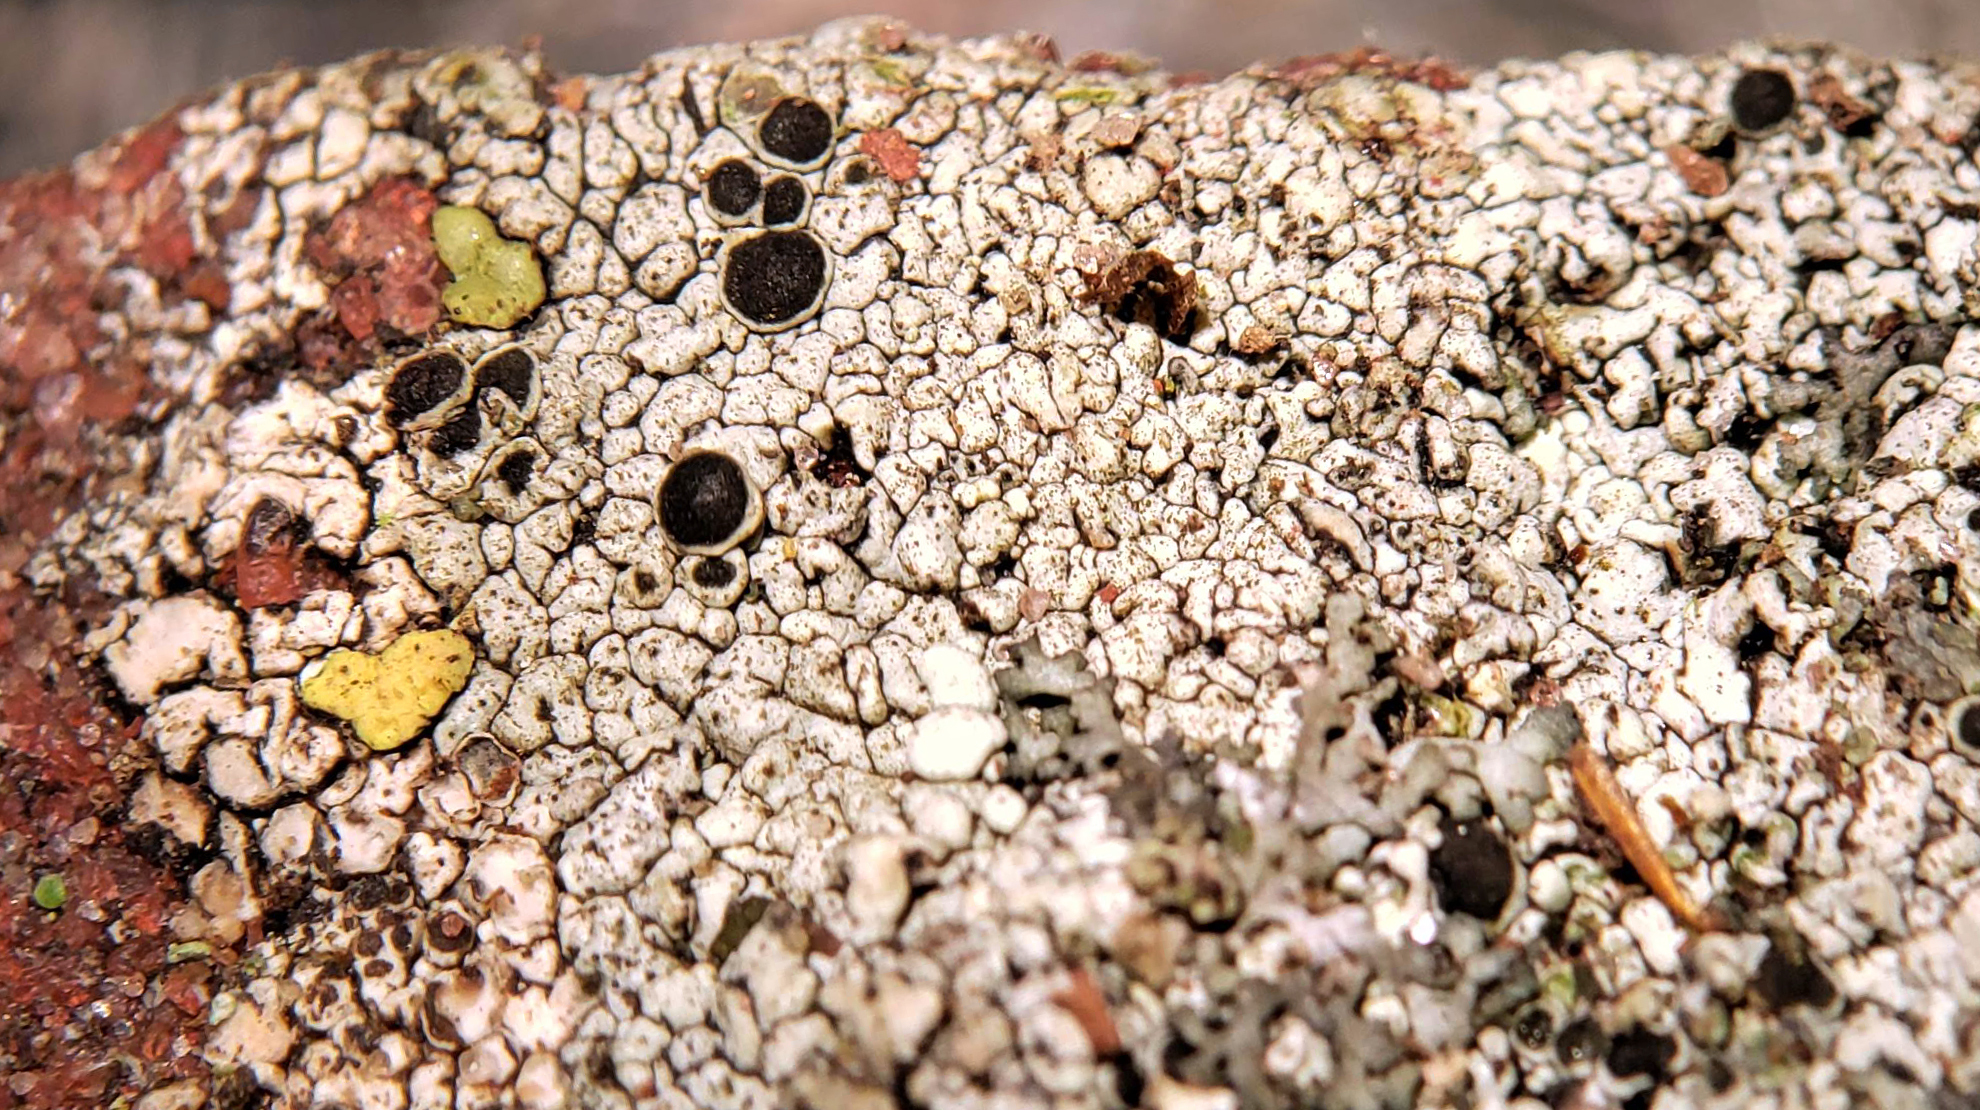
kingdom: Fungi
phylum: Ascomycota
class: Lecanoromycetes
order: Lecanorales
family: Tephromelataceae
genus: Tephromela
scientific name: Tephromela atra
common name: Black shields
